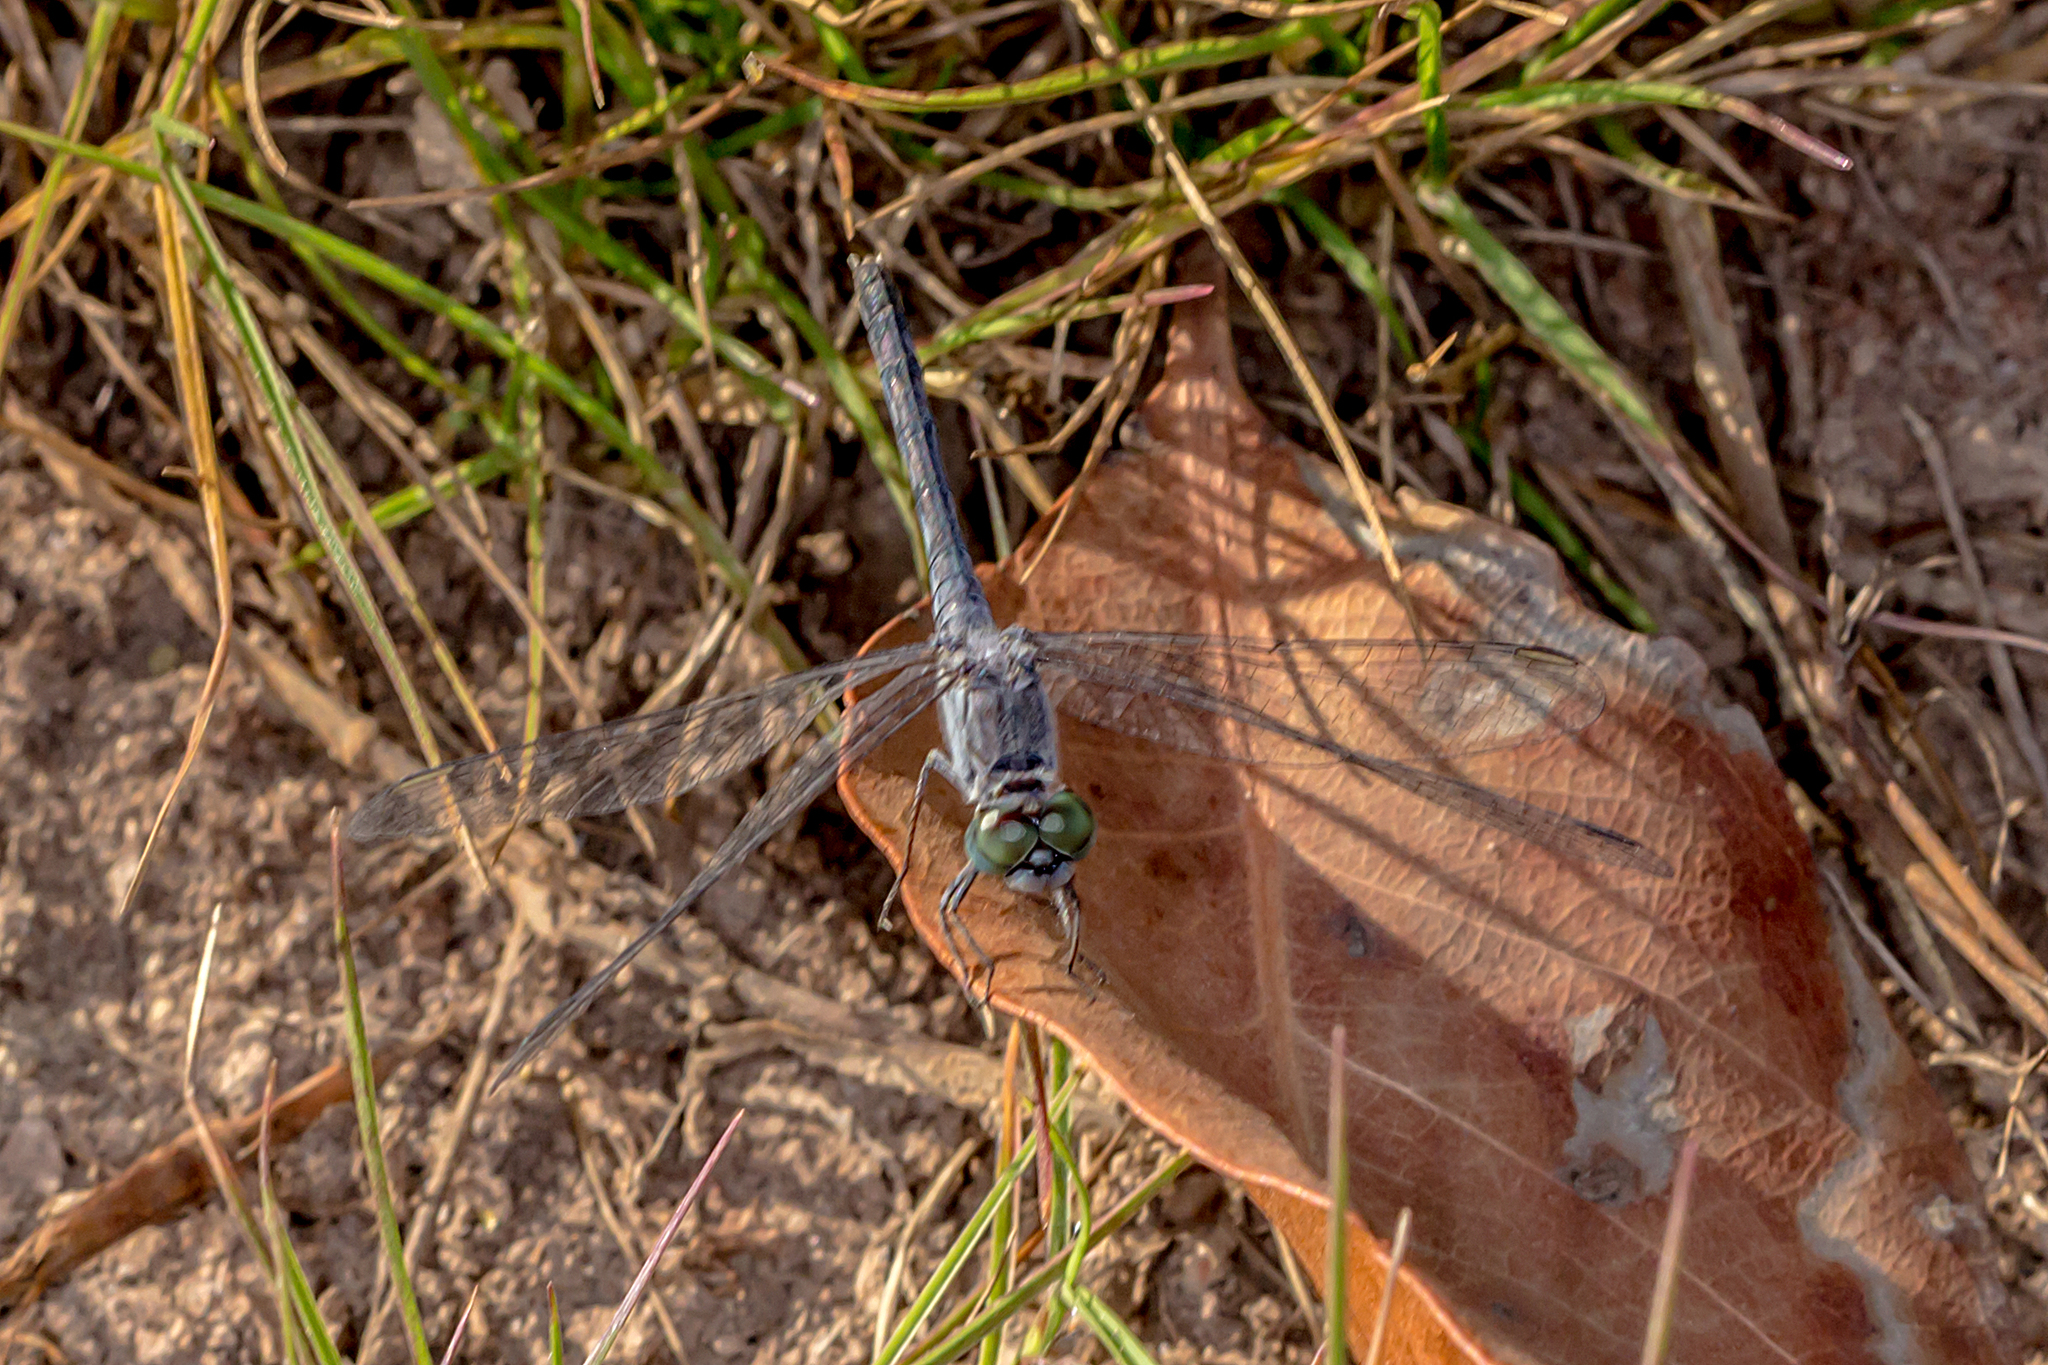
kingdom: Animalia
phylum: Arthropoda
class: Insecta
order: Odonata
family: Libellulidae
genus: Diplacodes
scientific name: Diplacodes trivialis
